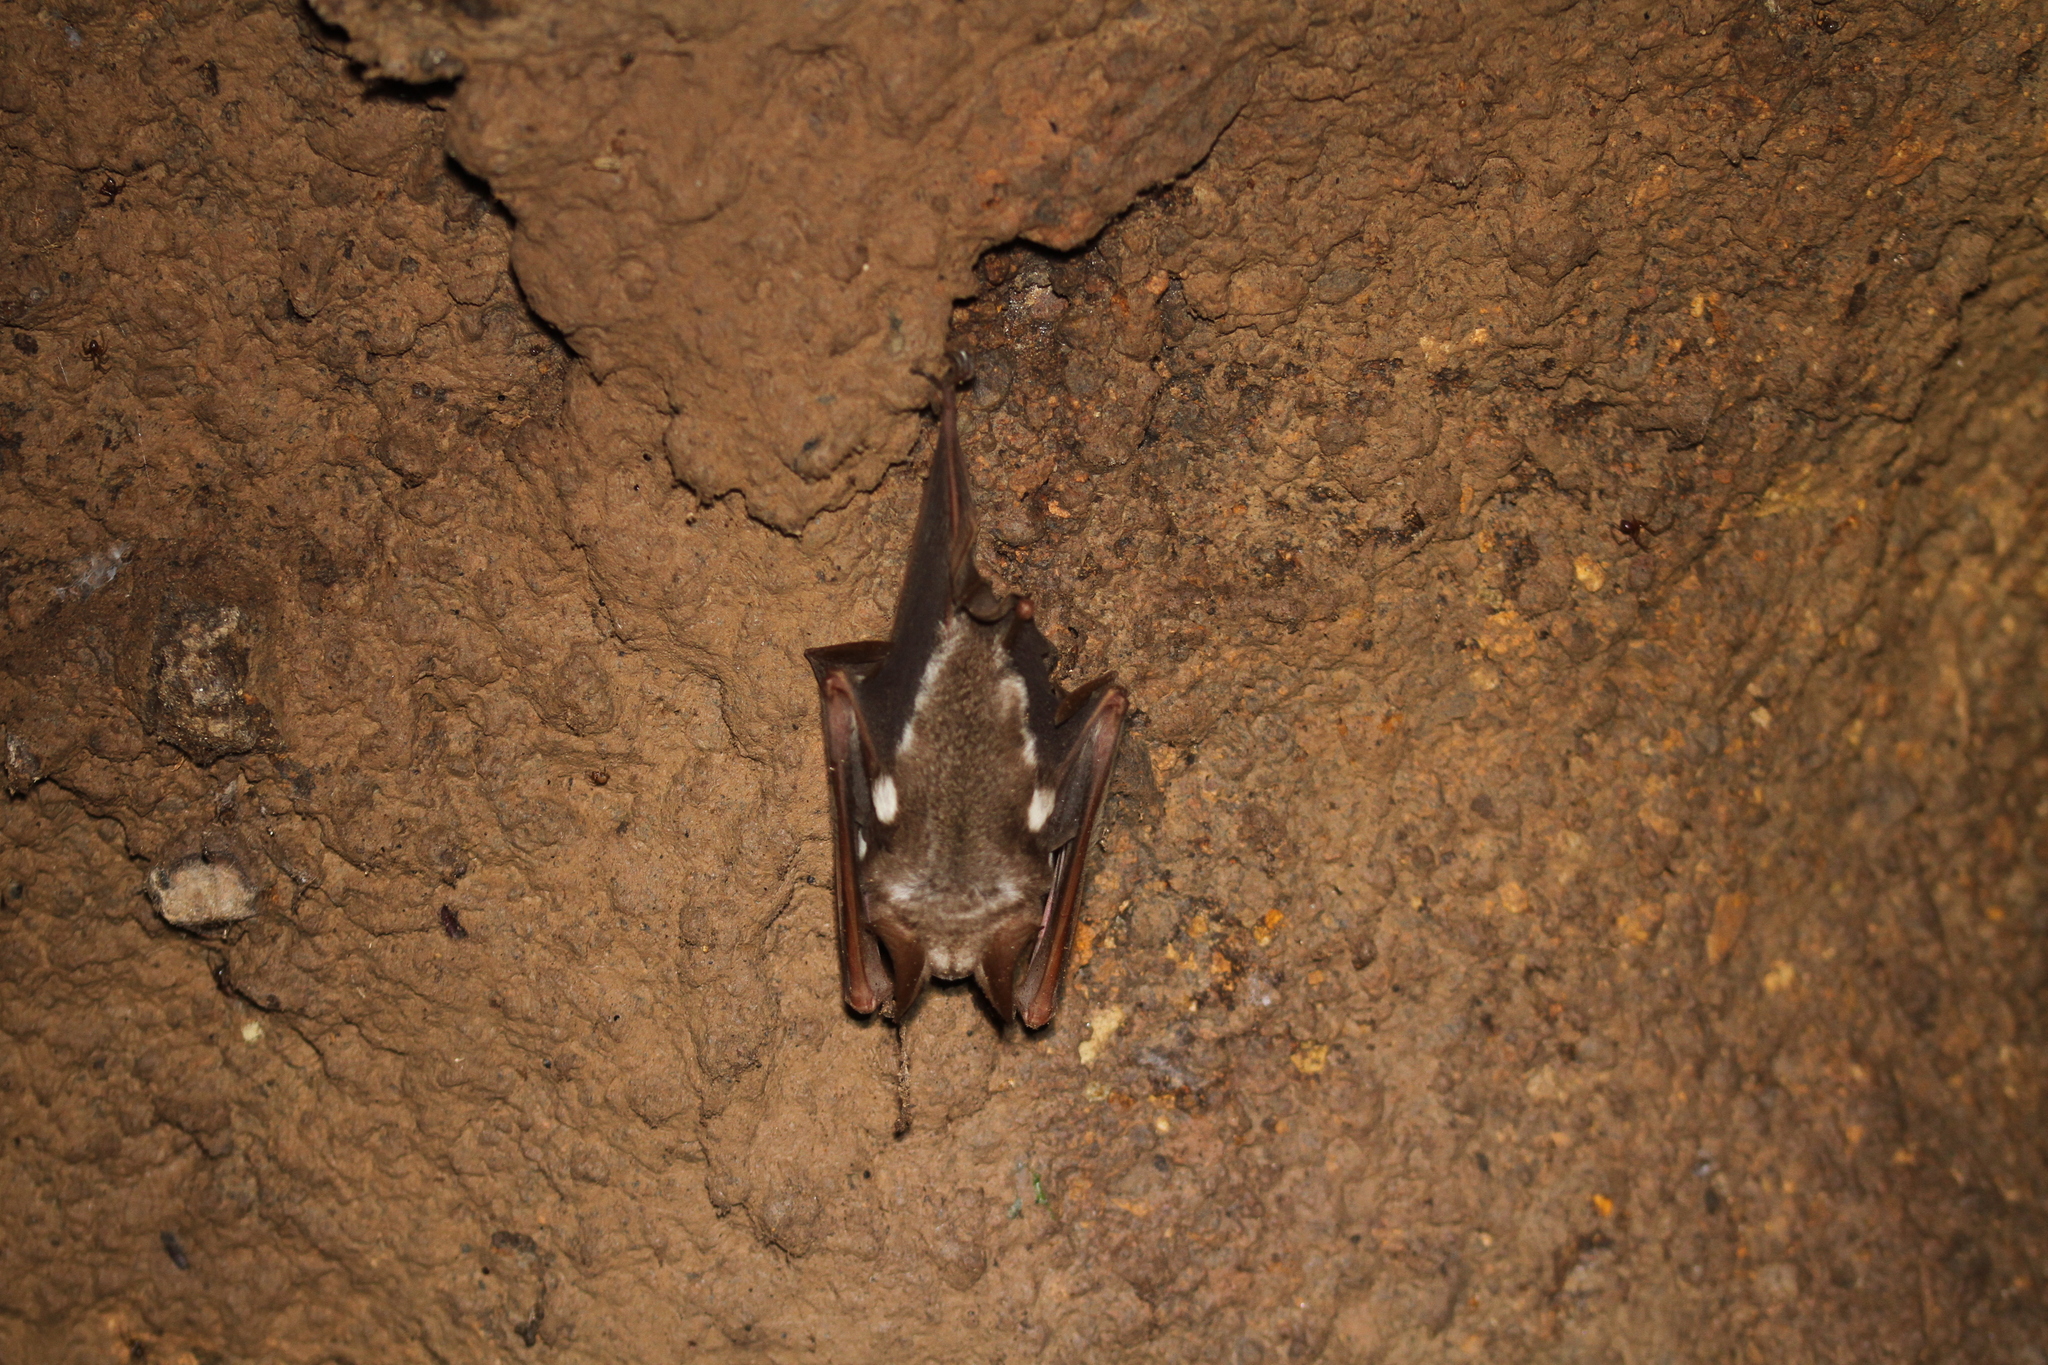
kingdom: Animalia
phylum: Chordata
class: Mammalia
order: Chiroptera
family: Hipposideridae
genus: Hipposideros
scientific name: Hipposideros diadema
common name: Diadem leaf-nosed bat
